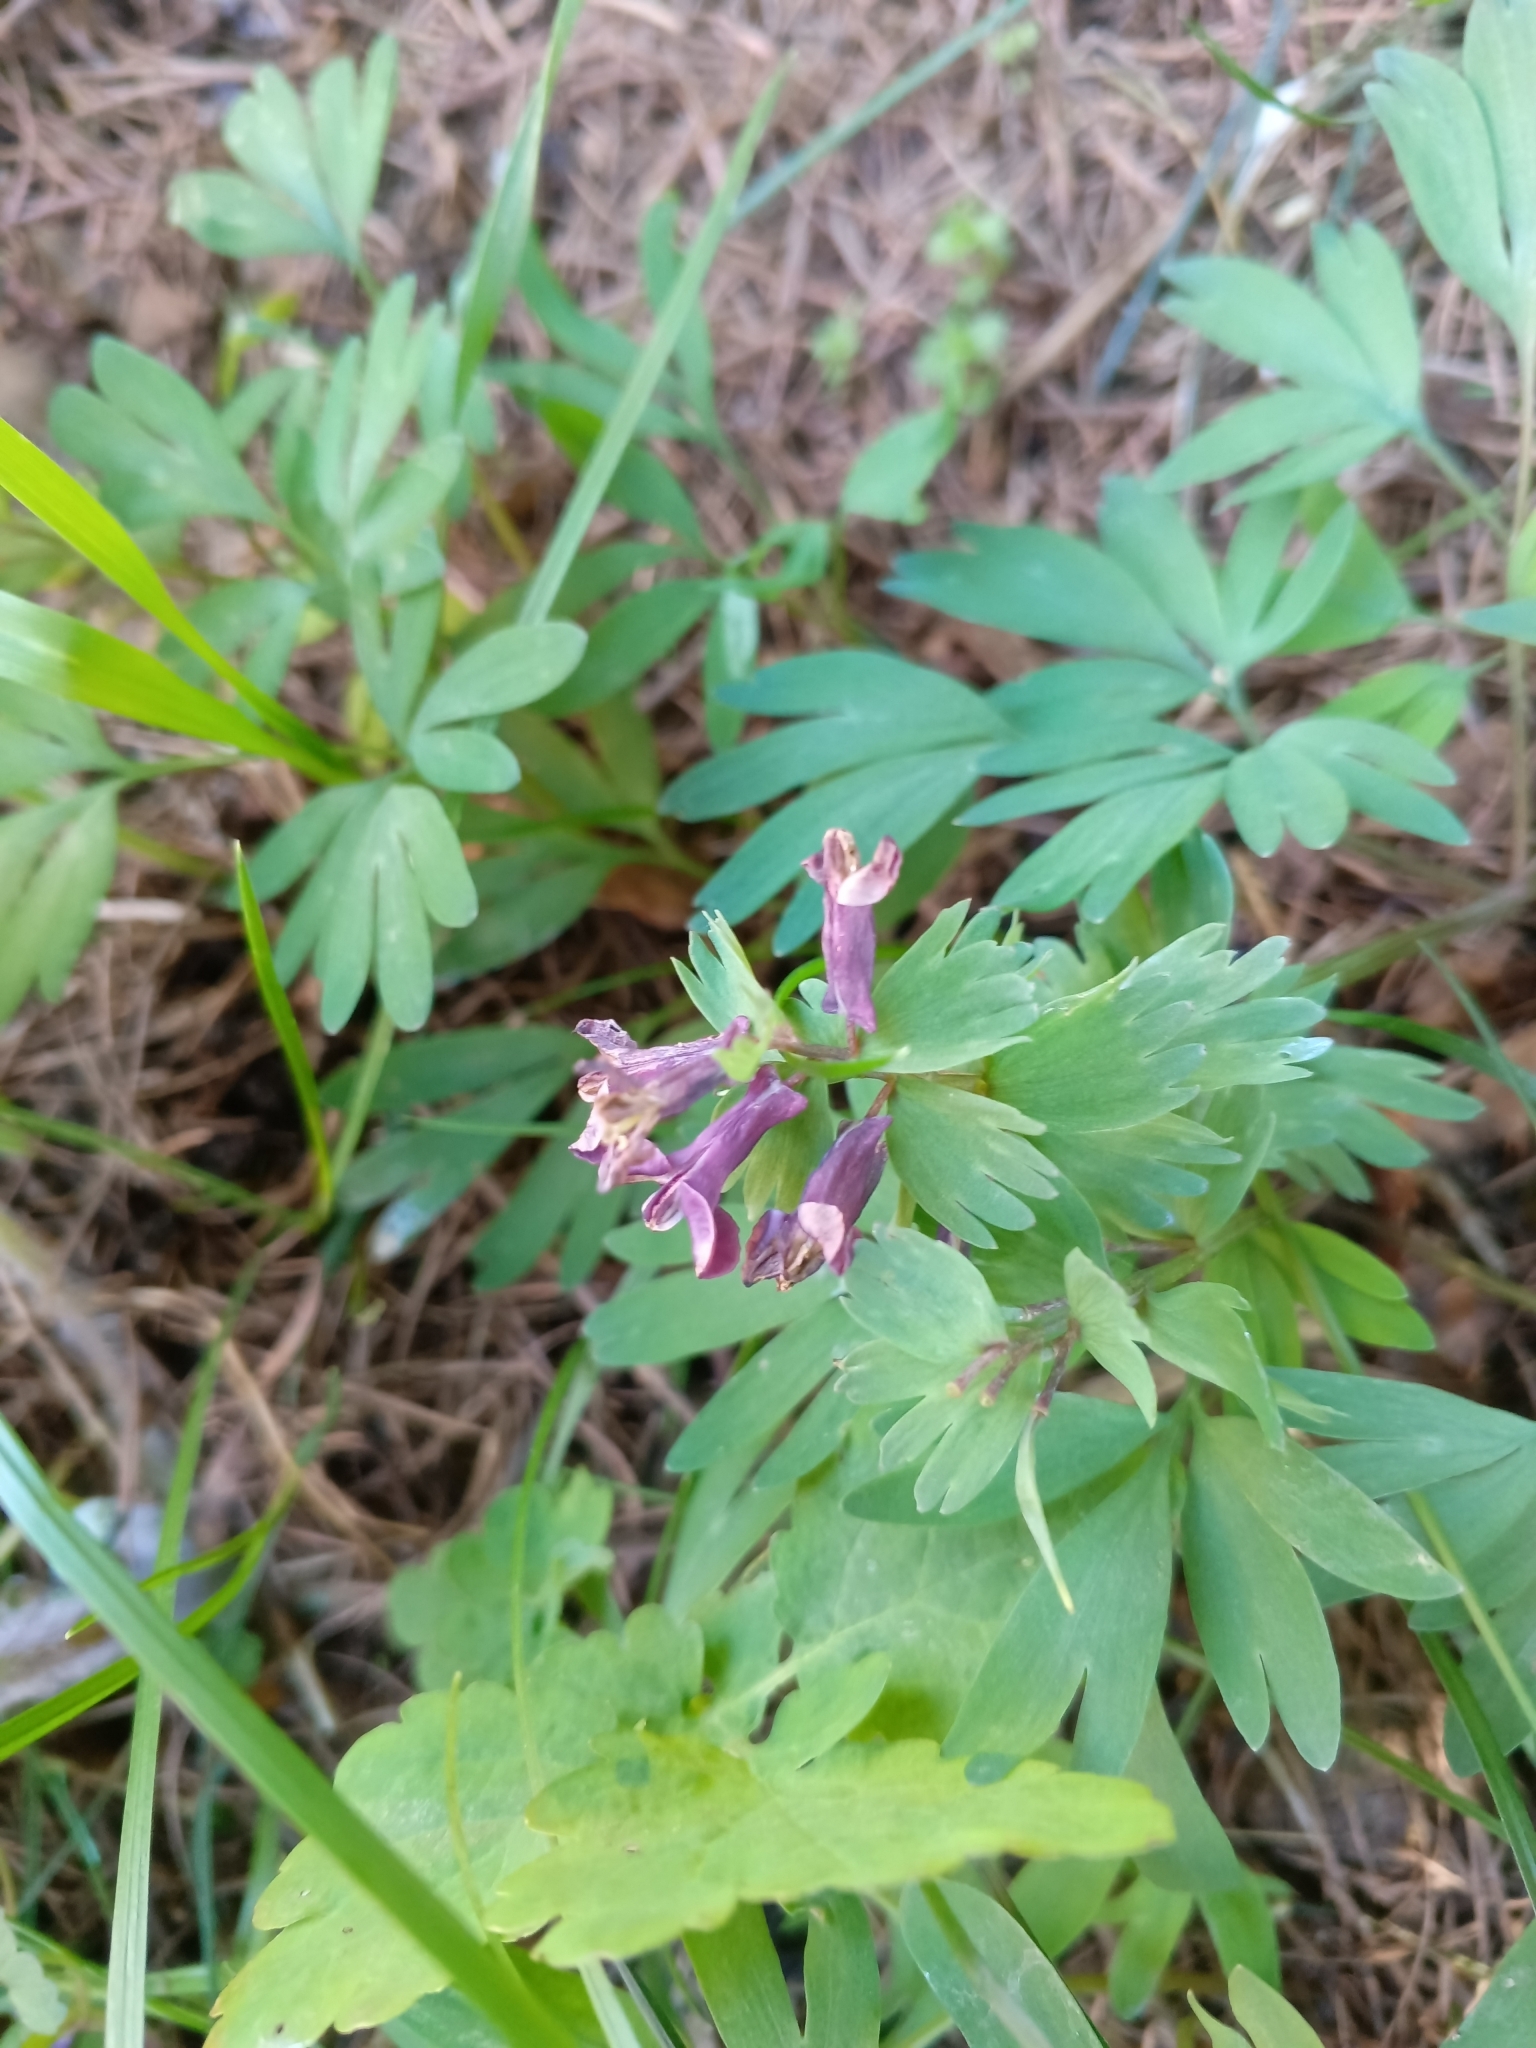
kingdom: Plantae
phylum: Tracheophyta
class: Magnoliopsida
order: Ranunculales
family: Papaveraceae
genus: Corydalis
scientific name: Corydalis solida
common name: Bird-in-a-bush
